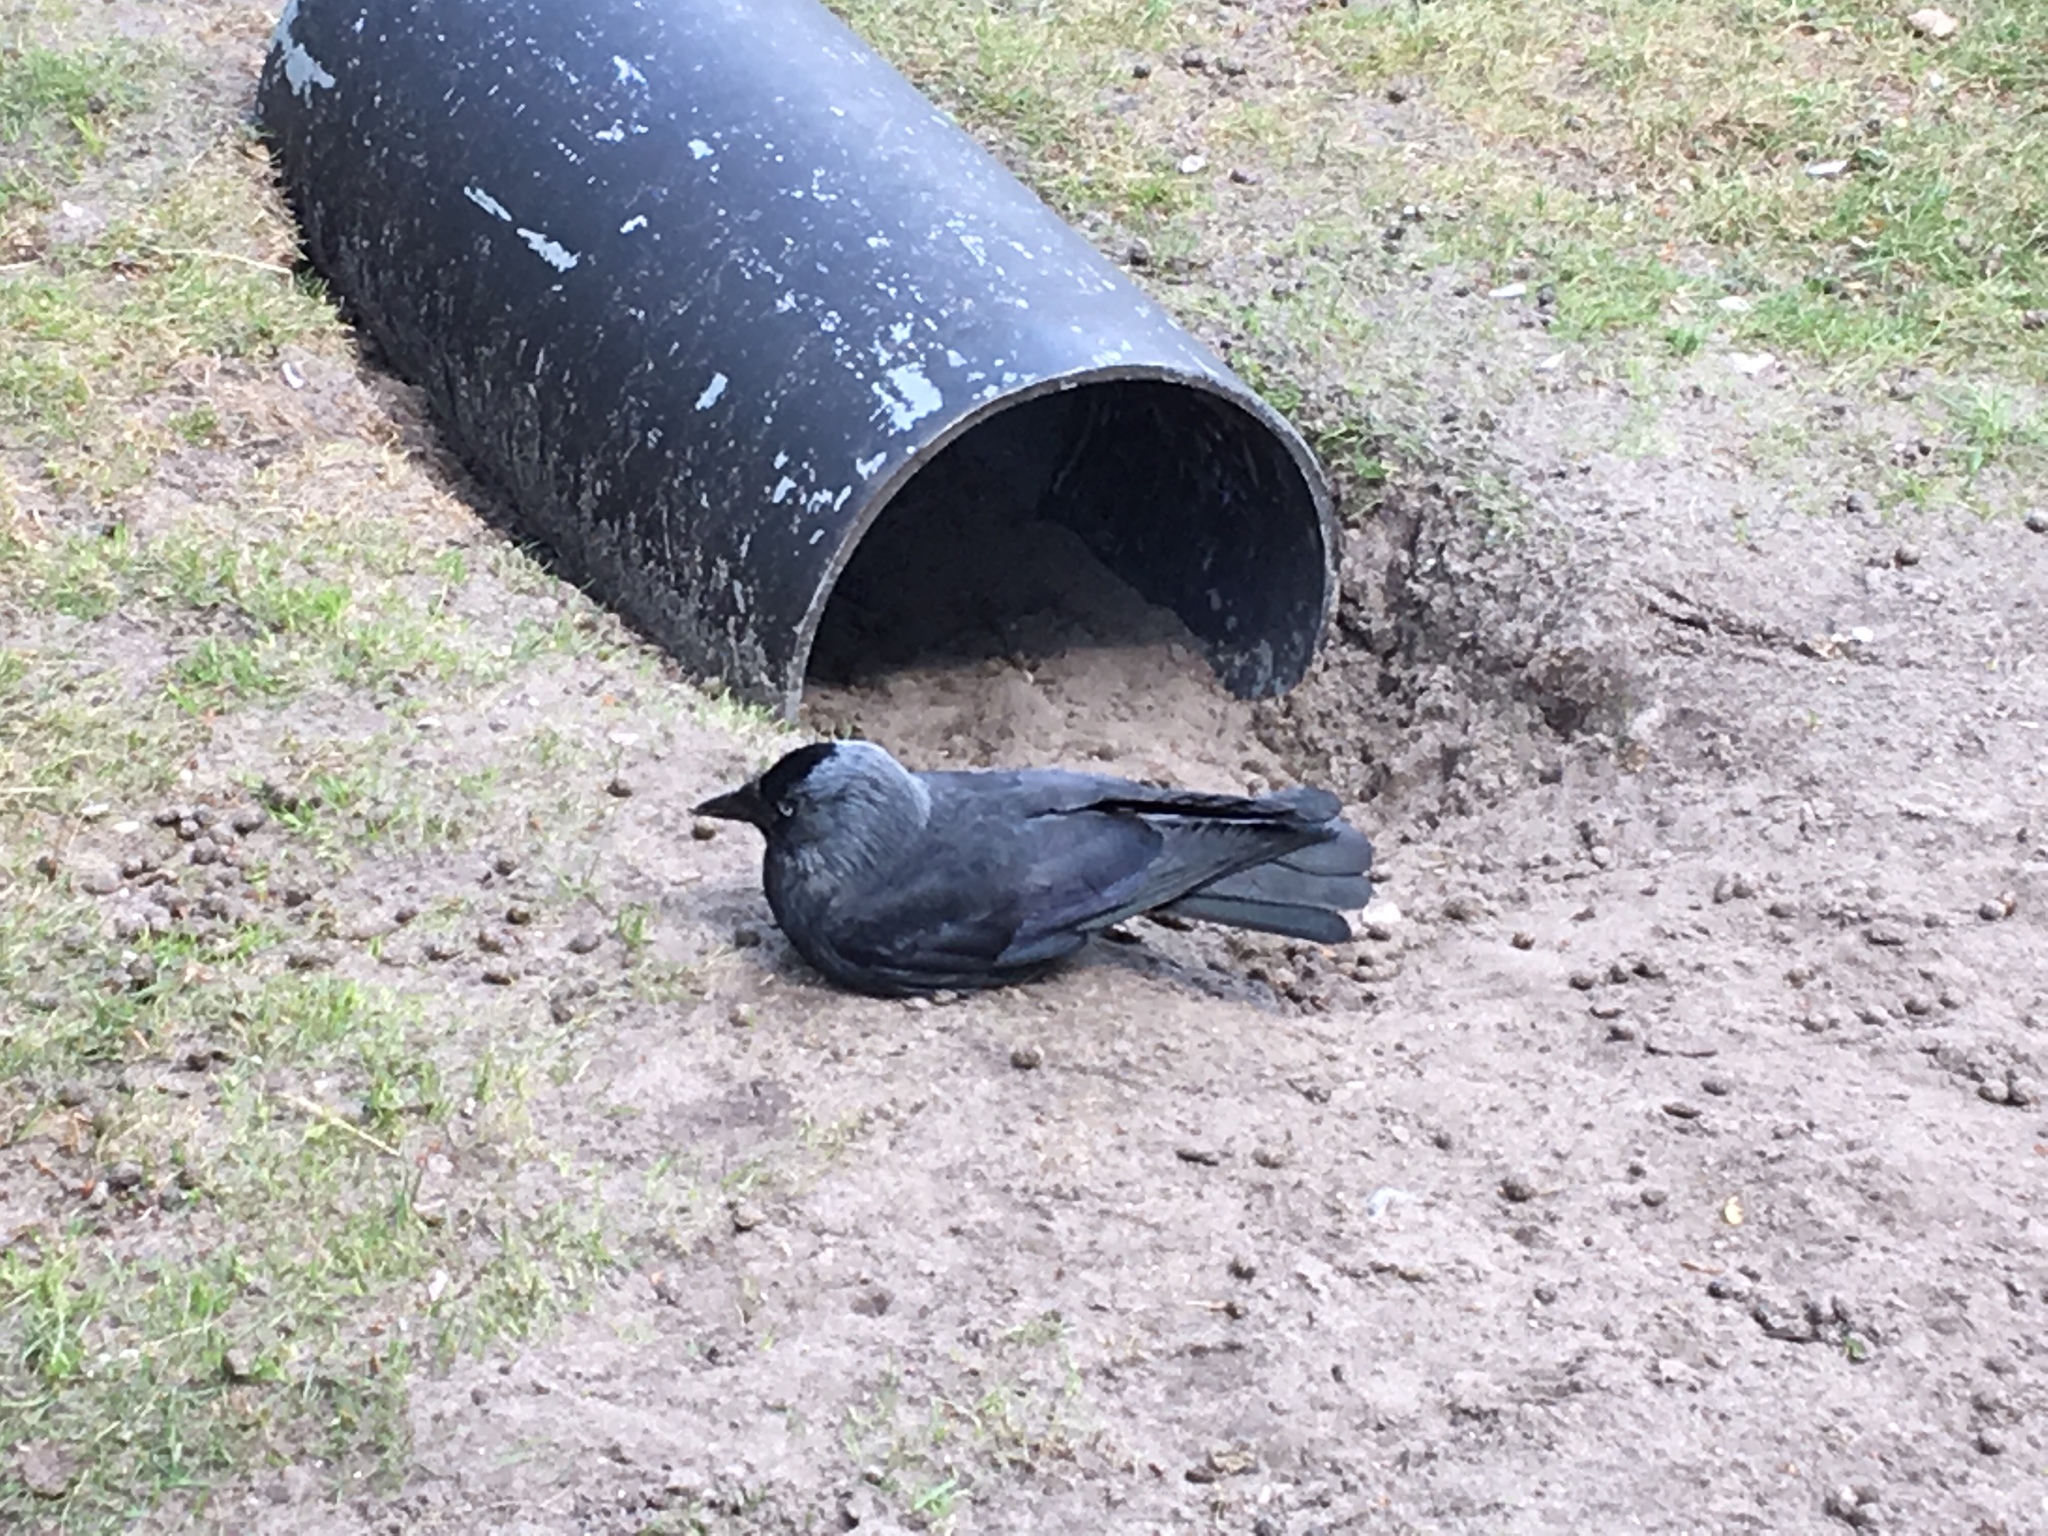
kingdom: Animalia
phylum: Chordata
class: Aves
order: Passeriformes
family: Corvidae
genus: Coloeus
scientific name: Coloeus monedula
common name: Western jackdaw
